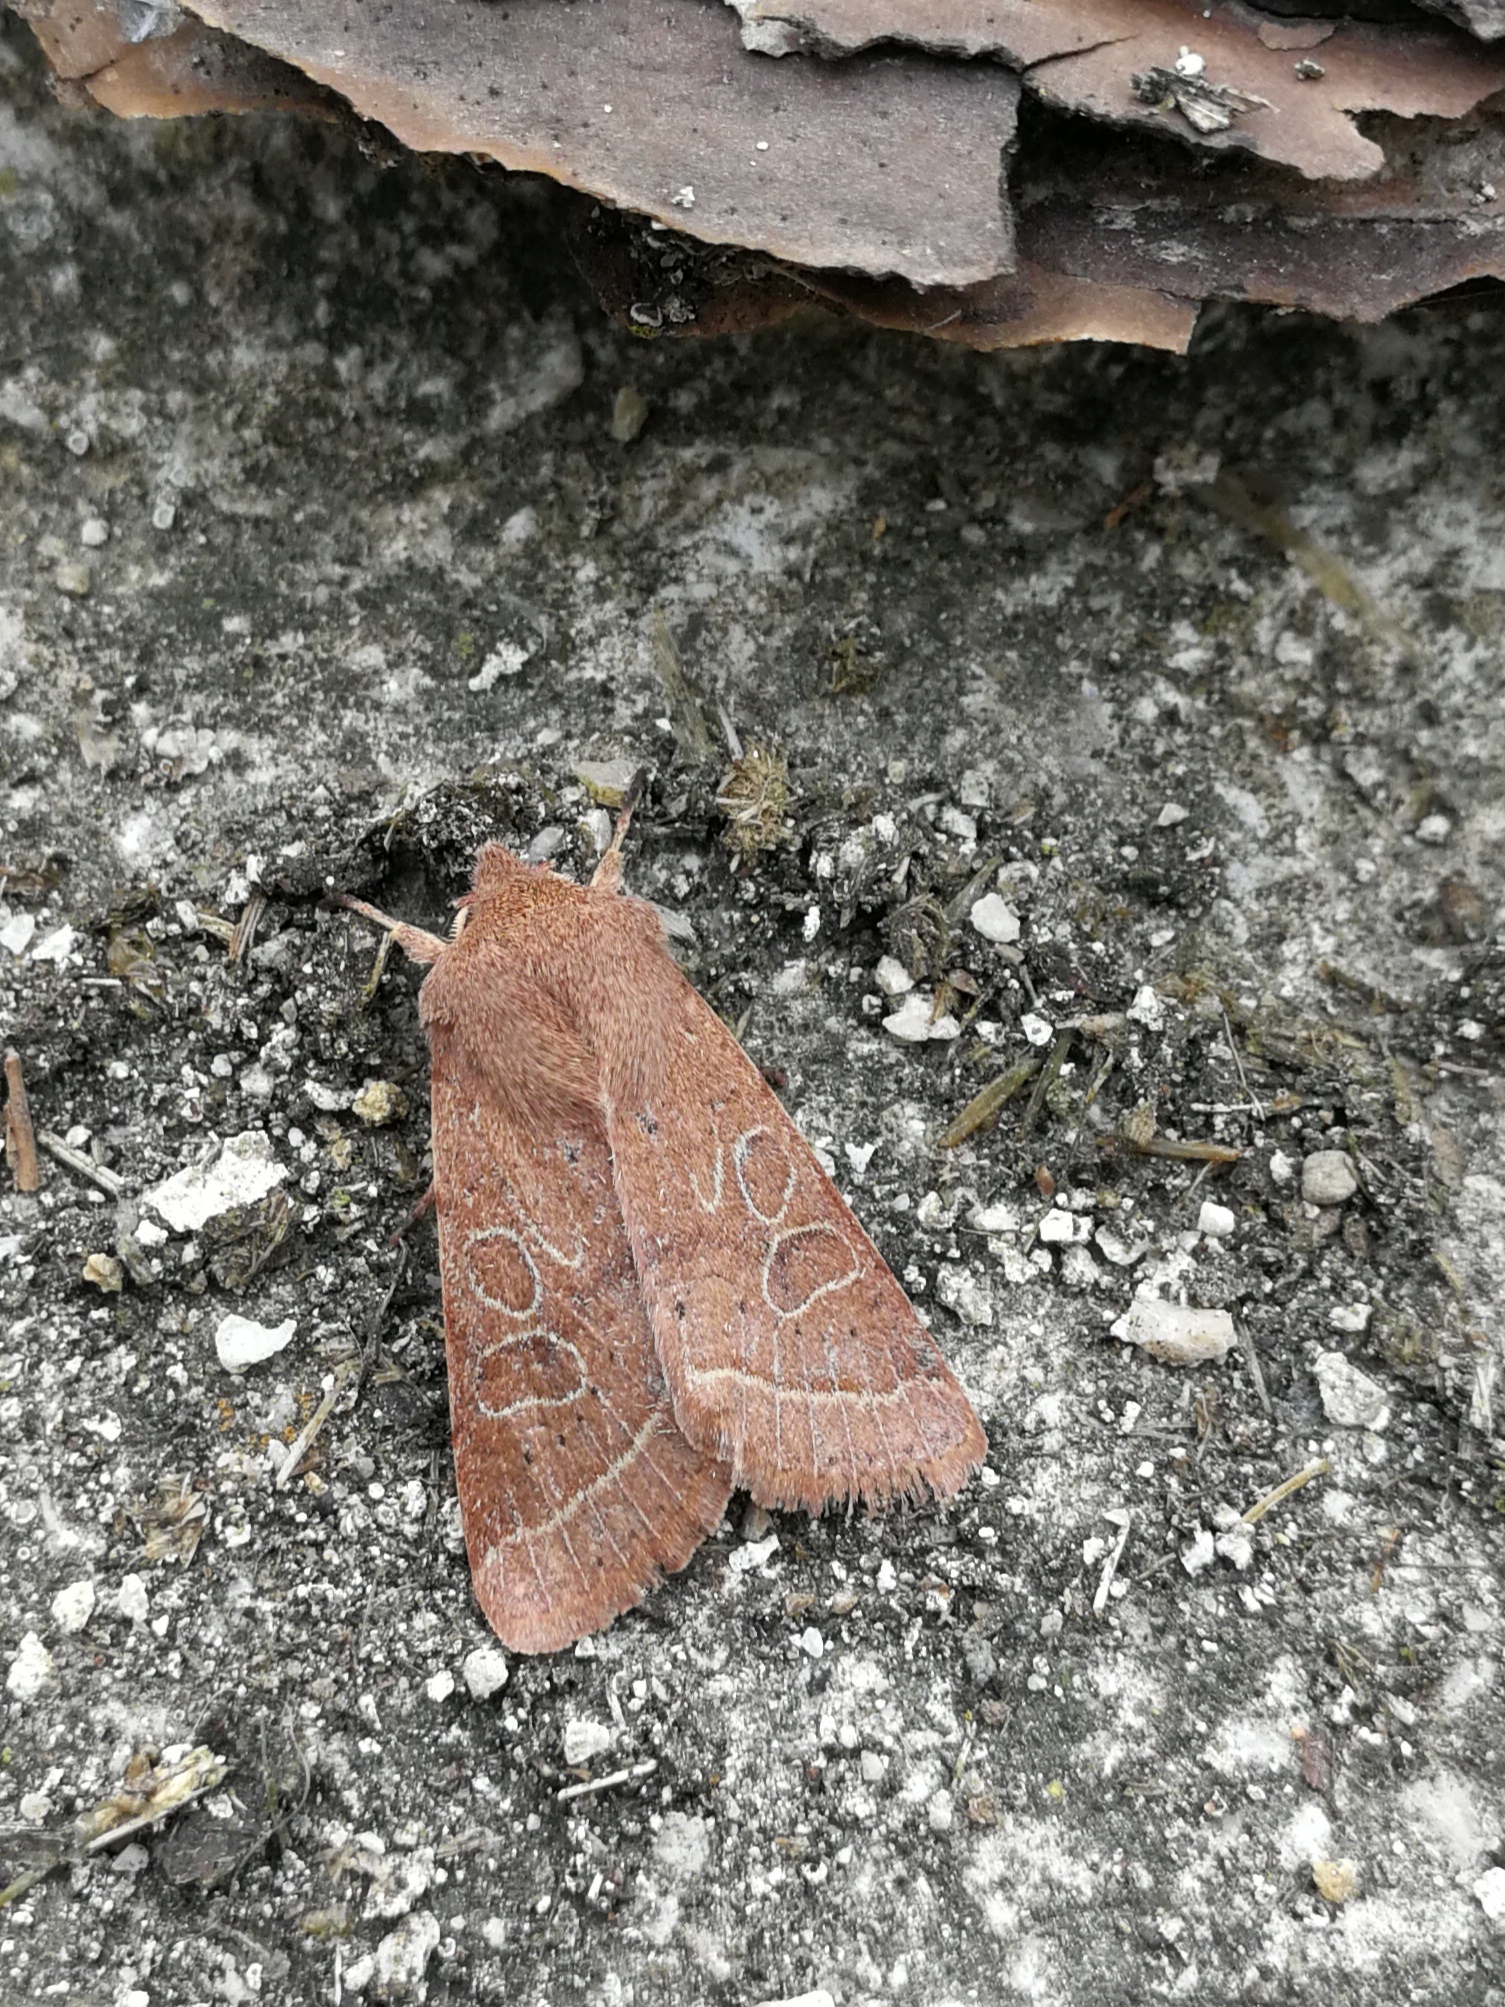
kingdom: Animalia
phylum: Arthropoda
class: Insecta
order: Lepidoptera
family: Noctuidae
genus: Orthosia
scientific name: Orthosia cerasi
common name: Common quaker
